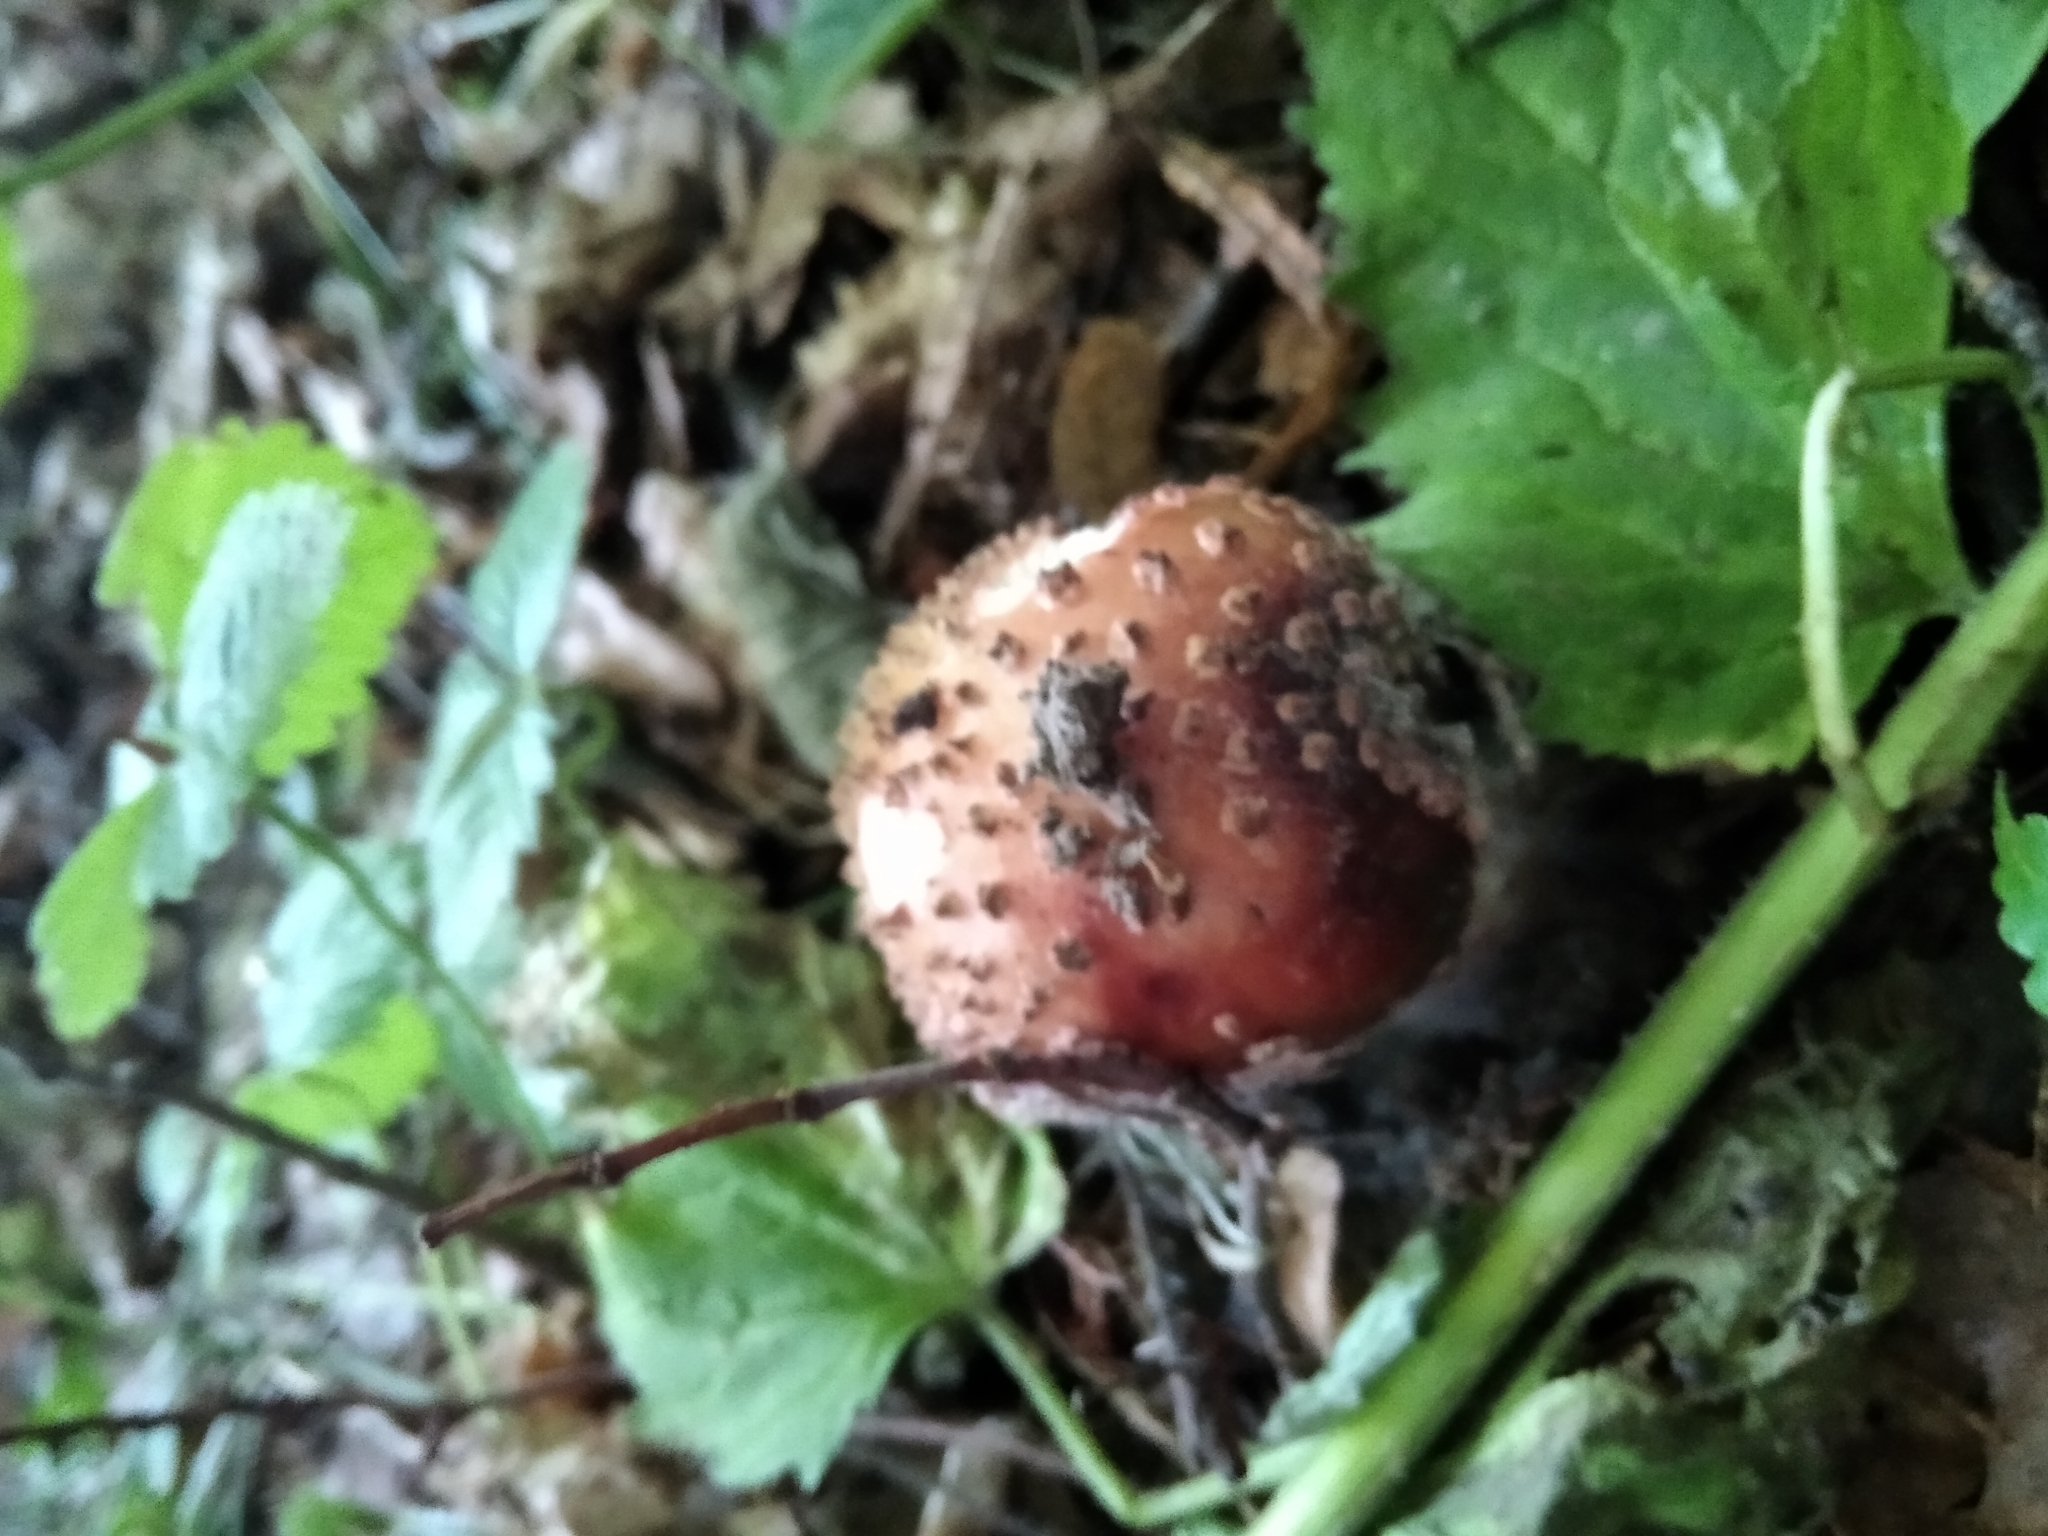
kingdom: Fungi
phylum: Basidiomycota
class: Agaricomycetes
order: Agaricales
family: Amanitaceae
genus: Amanita
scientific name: Amanita muscaria
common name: Fly agaric
